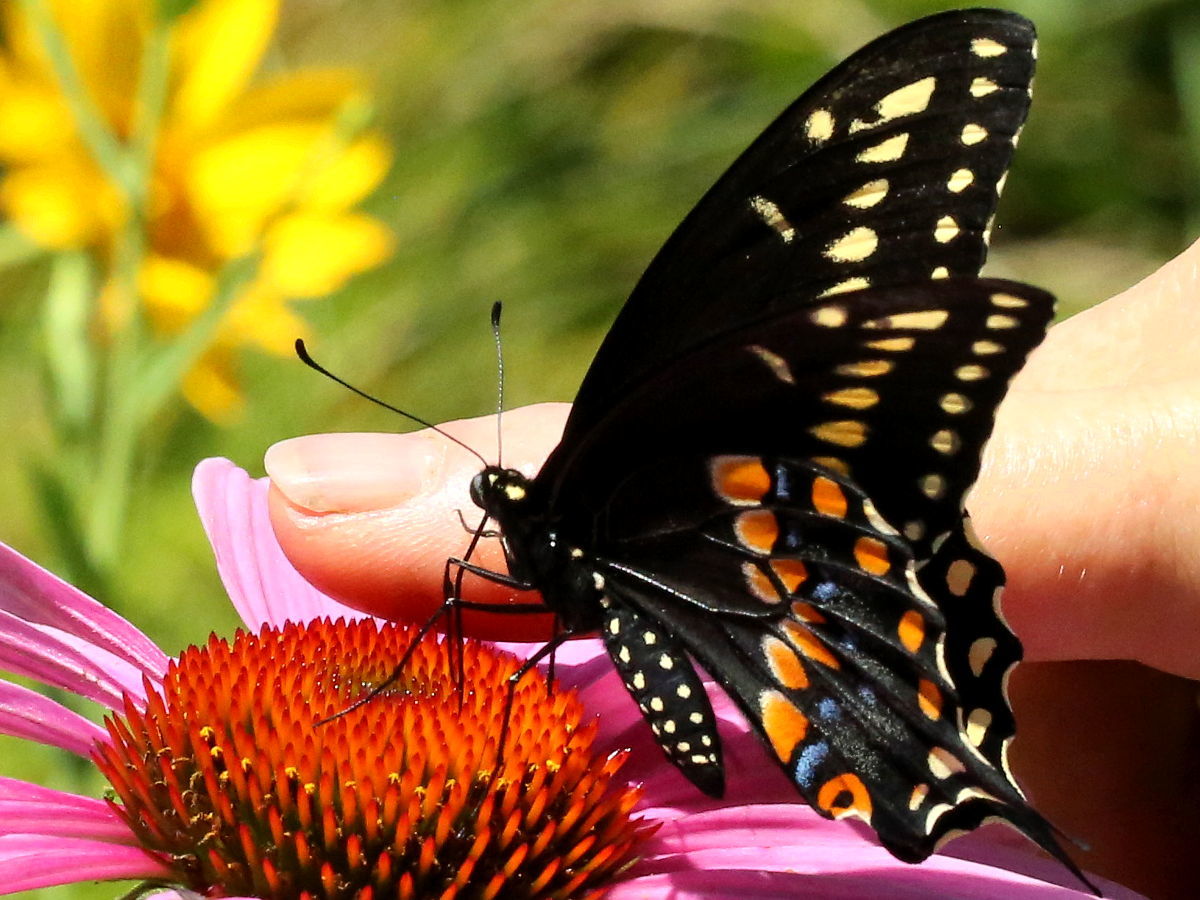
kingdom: Animalia
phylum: Arthropoda
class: Insecta
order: Lepidoptera
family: Papilionidae
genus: Papilio
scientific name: Papilio polyxenes
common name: Black swallowtail
